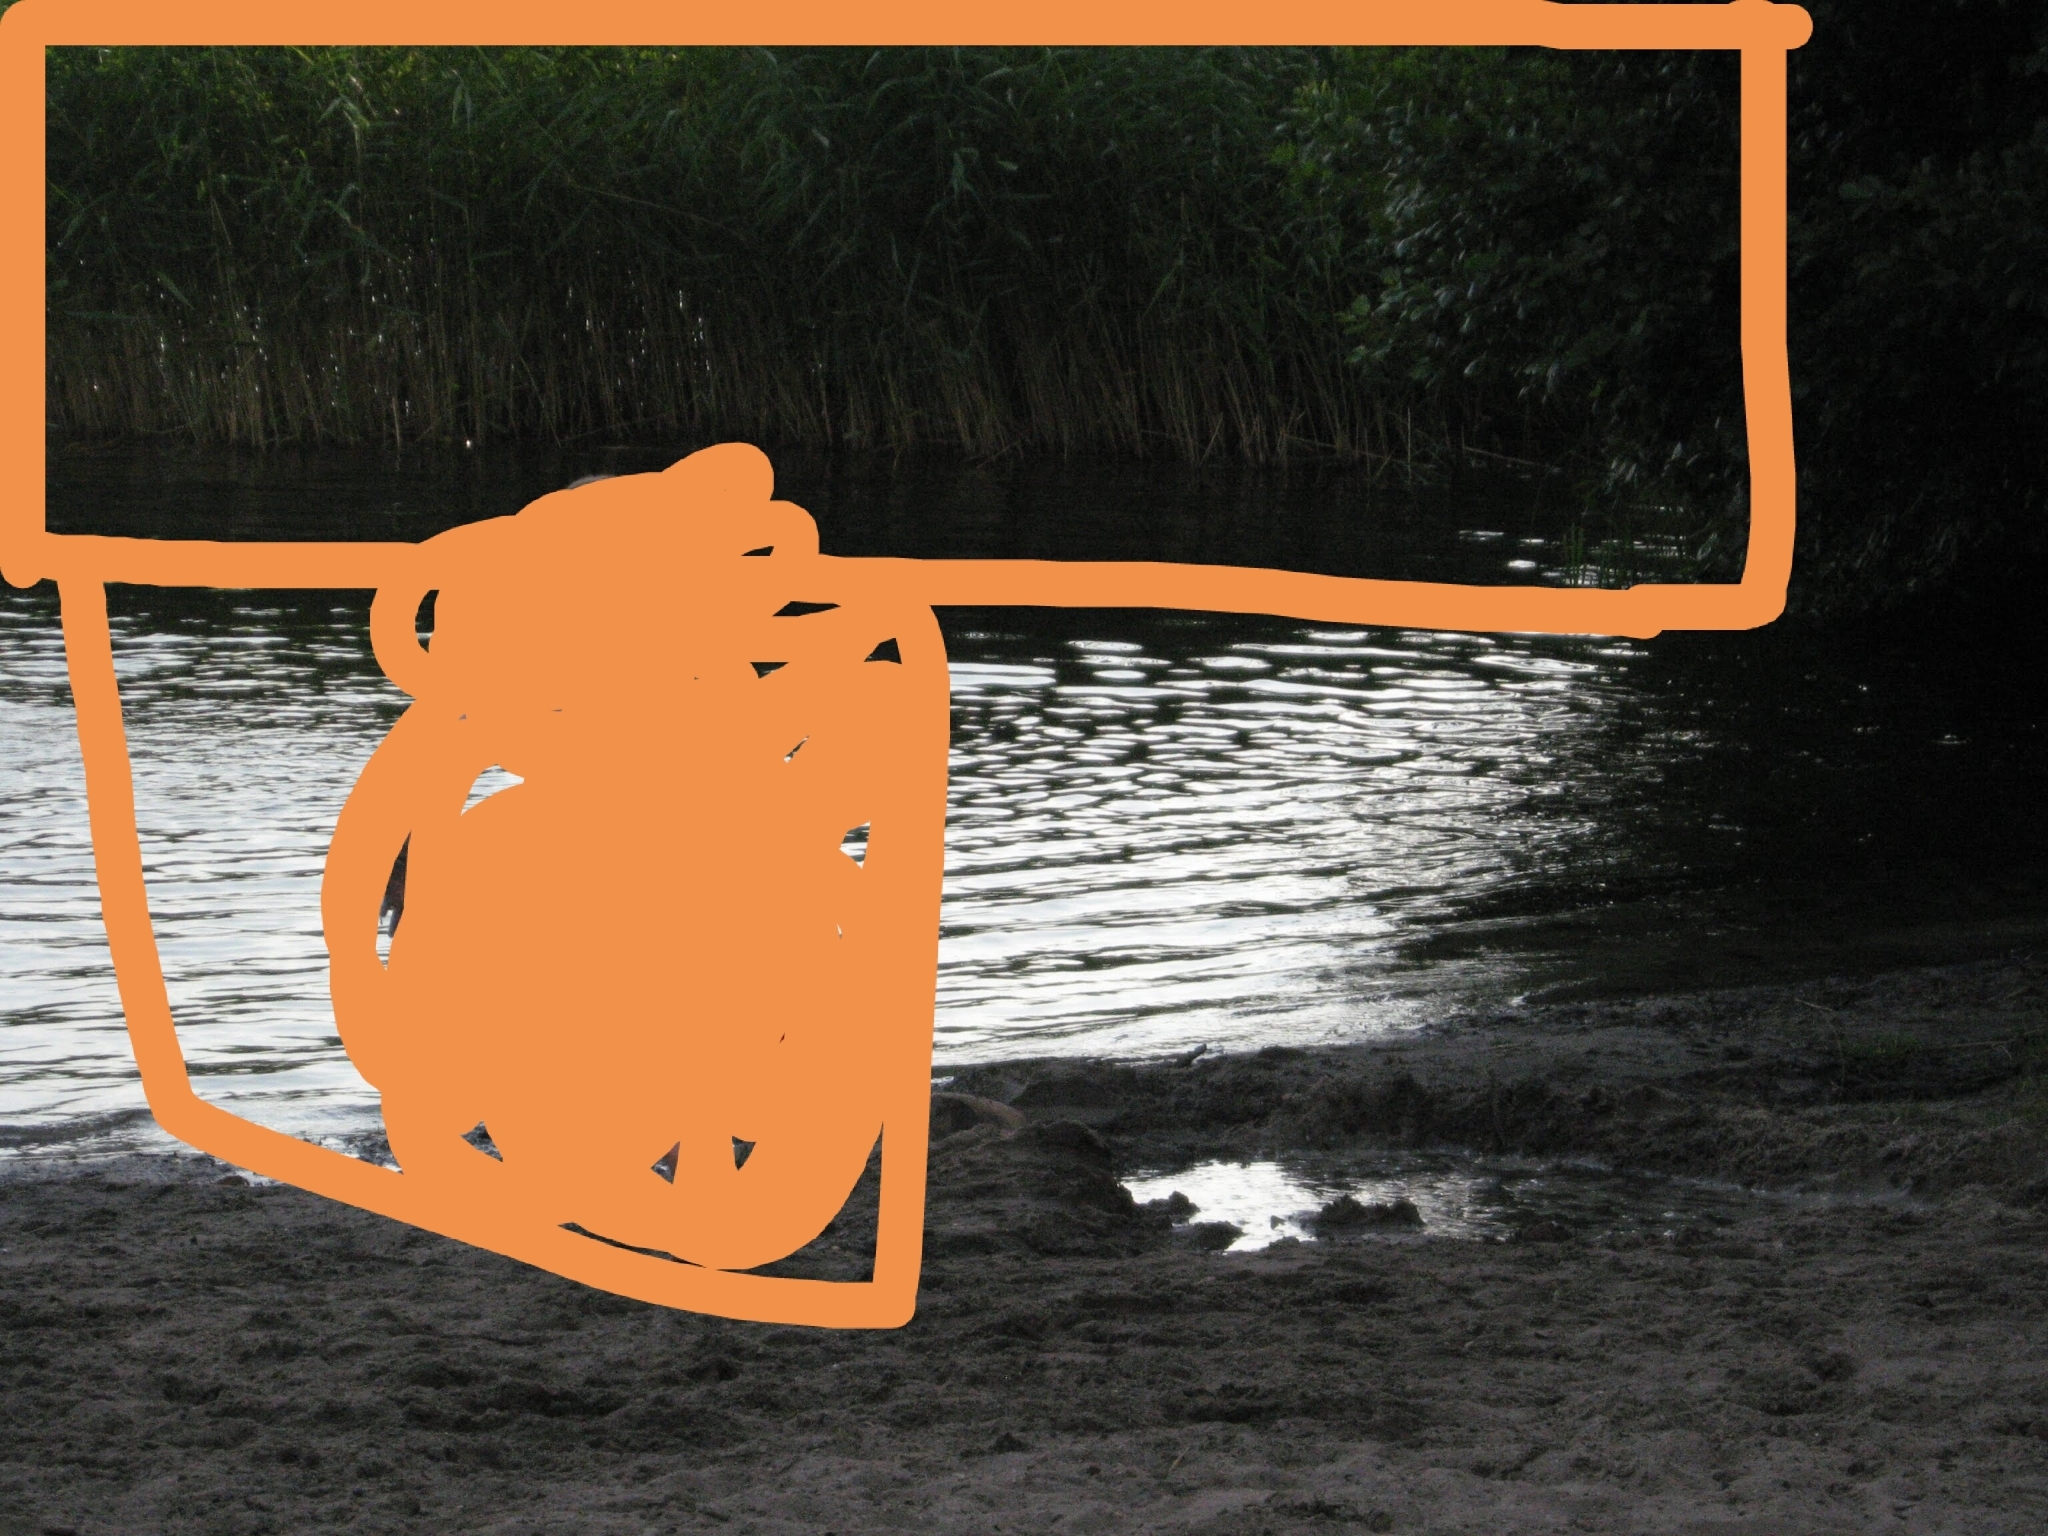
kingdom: Plantae
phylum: Tracheophyta
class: Liliopsida
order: Poales
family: Poaceae
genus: Phragmites
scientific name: Phragmites australis
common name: Common reed
